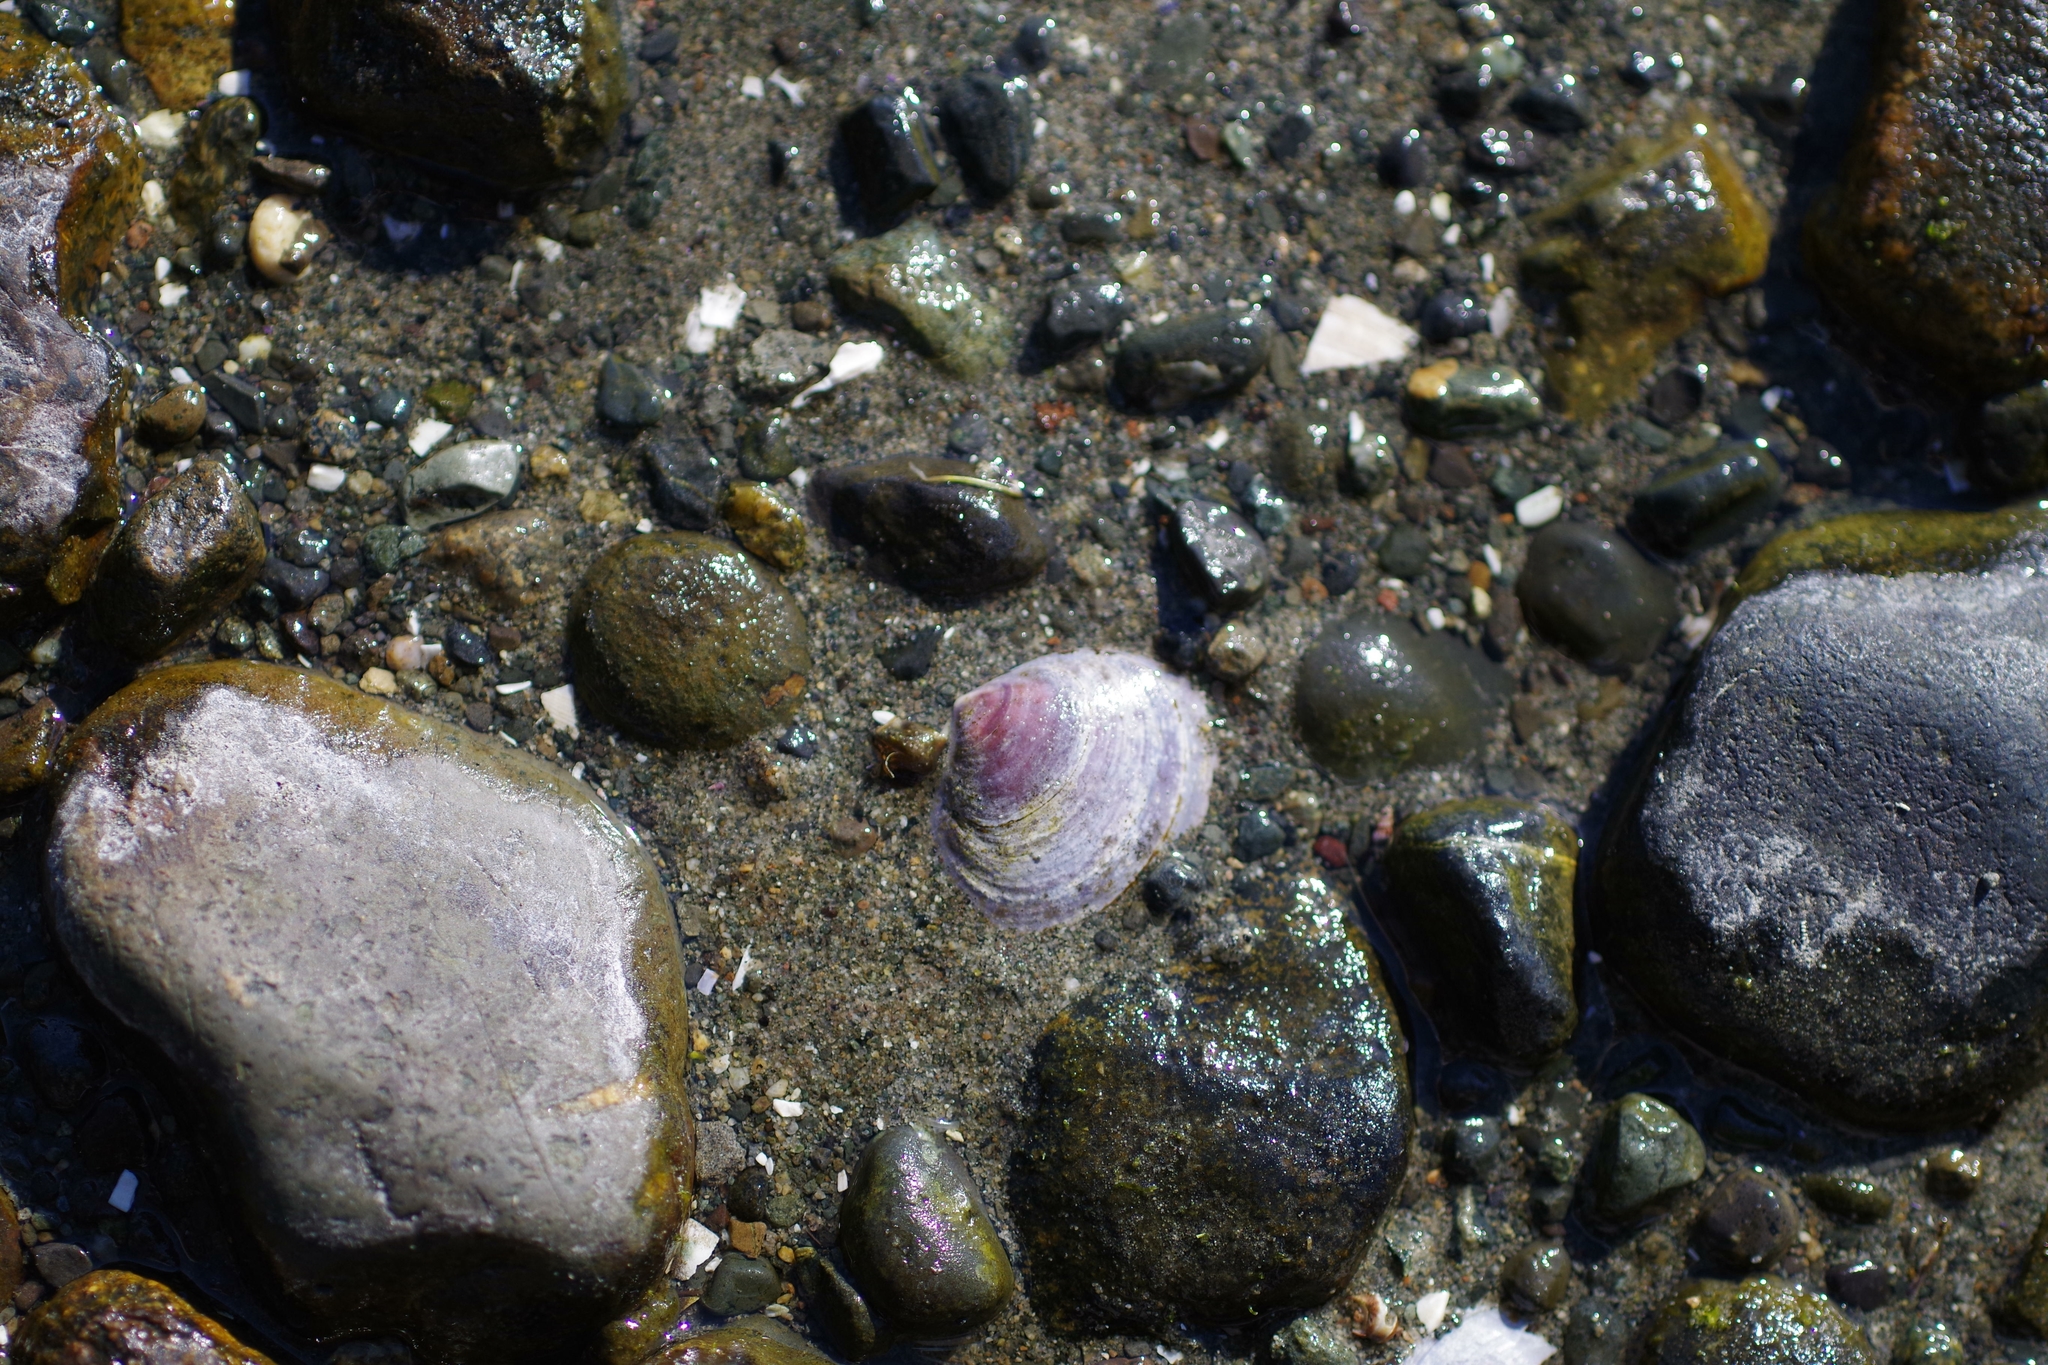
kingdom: Animalia
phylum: Mollusca
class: Bivalvia
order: Cardiida
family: Psammobiidae
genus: Nuttallia
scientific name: Nuttallia obscurata
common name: Purple mahogany-clam
